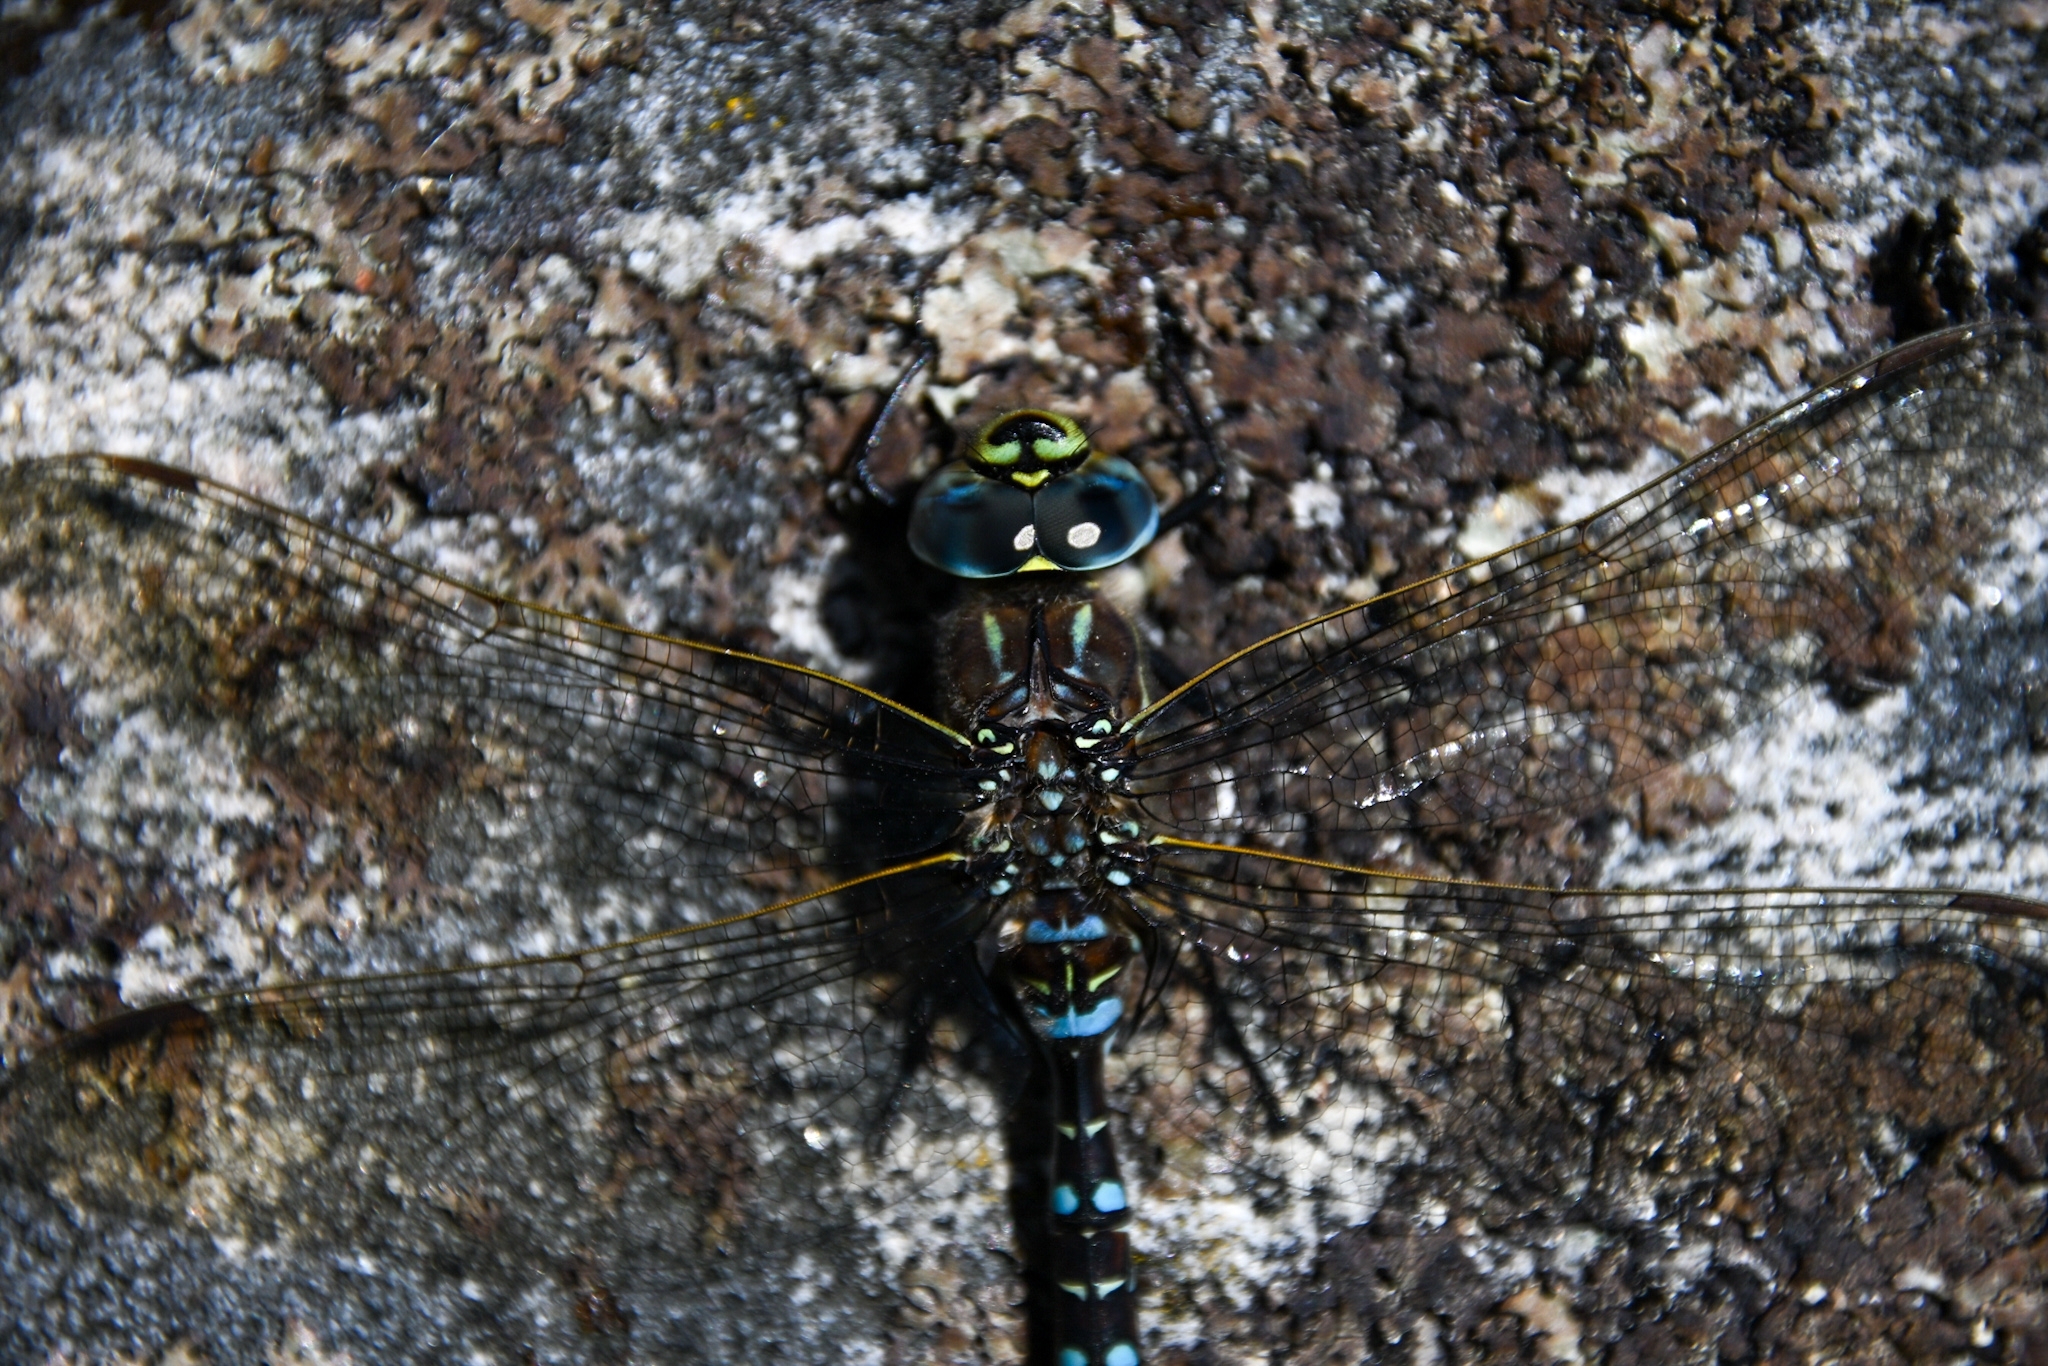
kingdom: Animalia
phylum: Arthropoda
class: Insecta
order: Odonata
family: Aeshnidae
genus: Aeshna
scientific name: Aeshna juncea
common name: Moorland hawker
